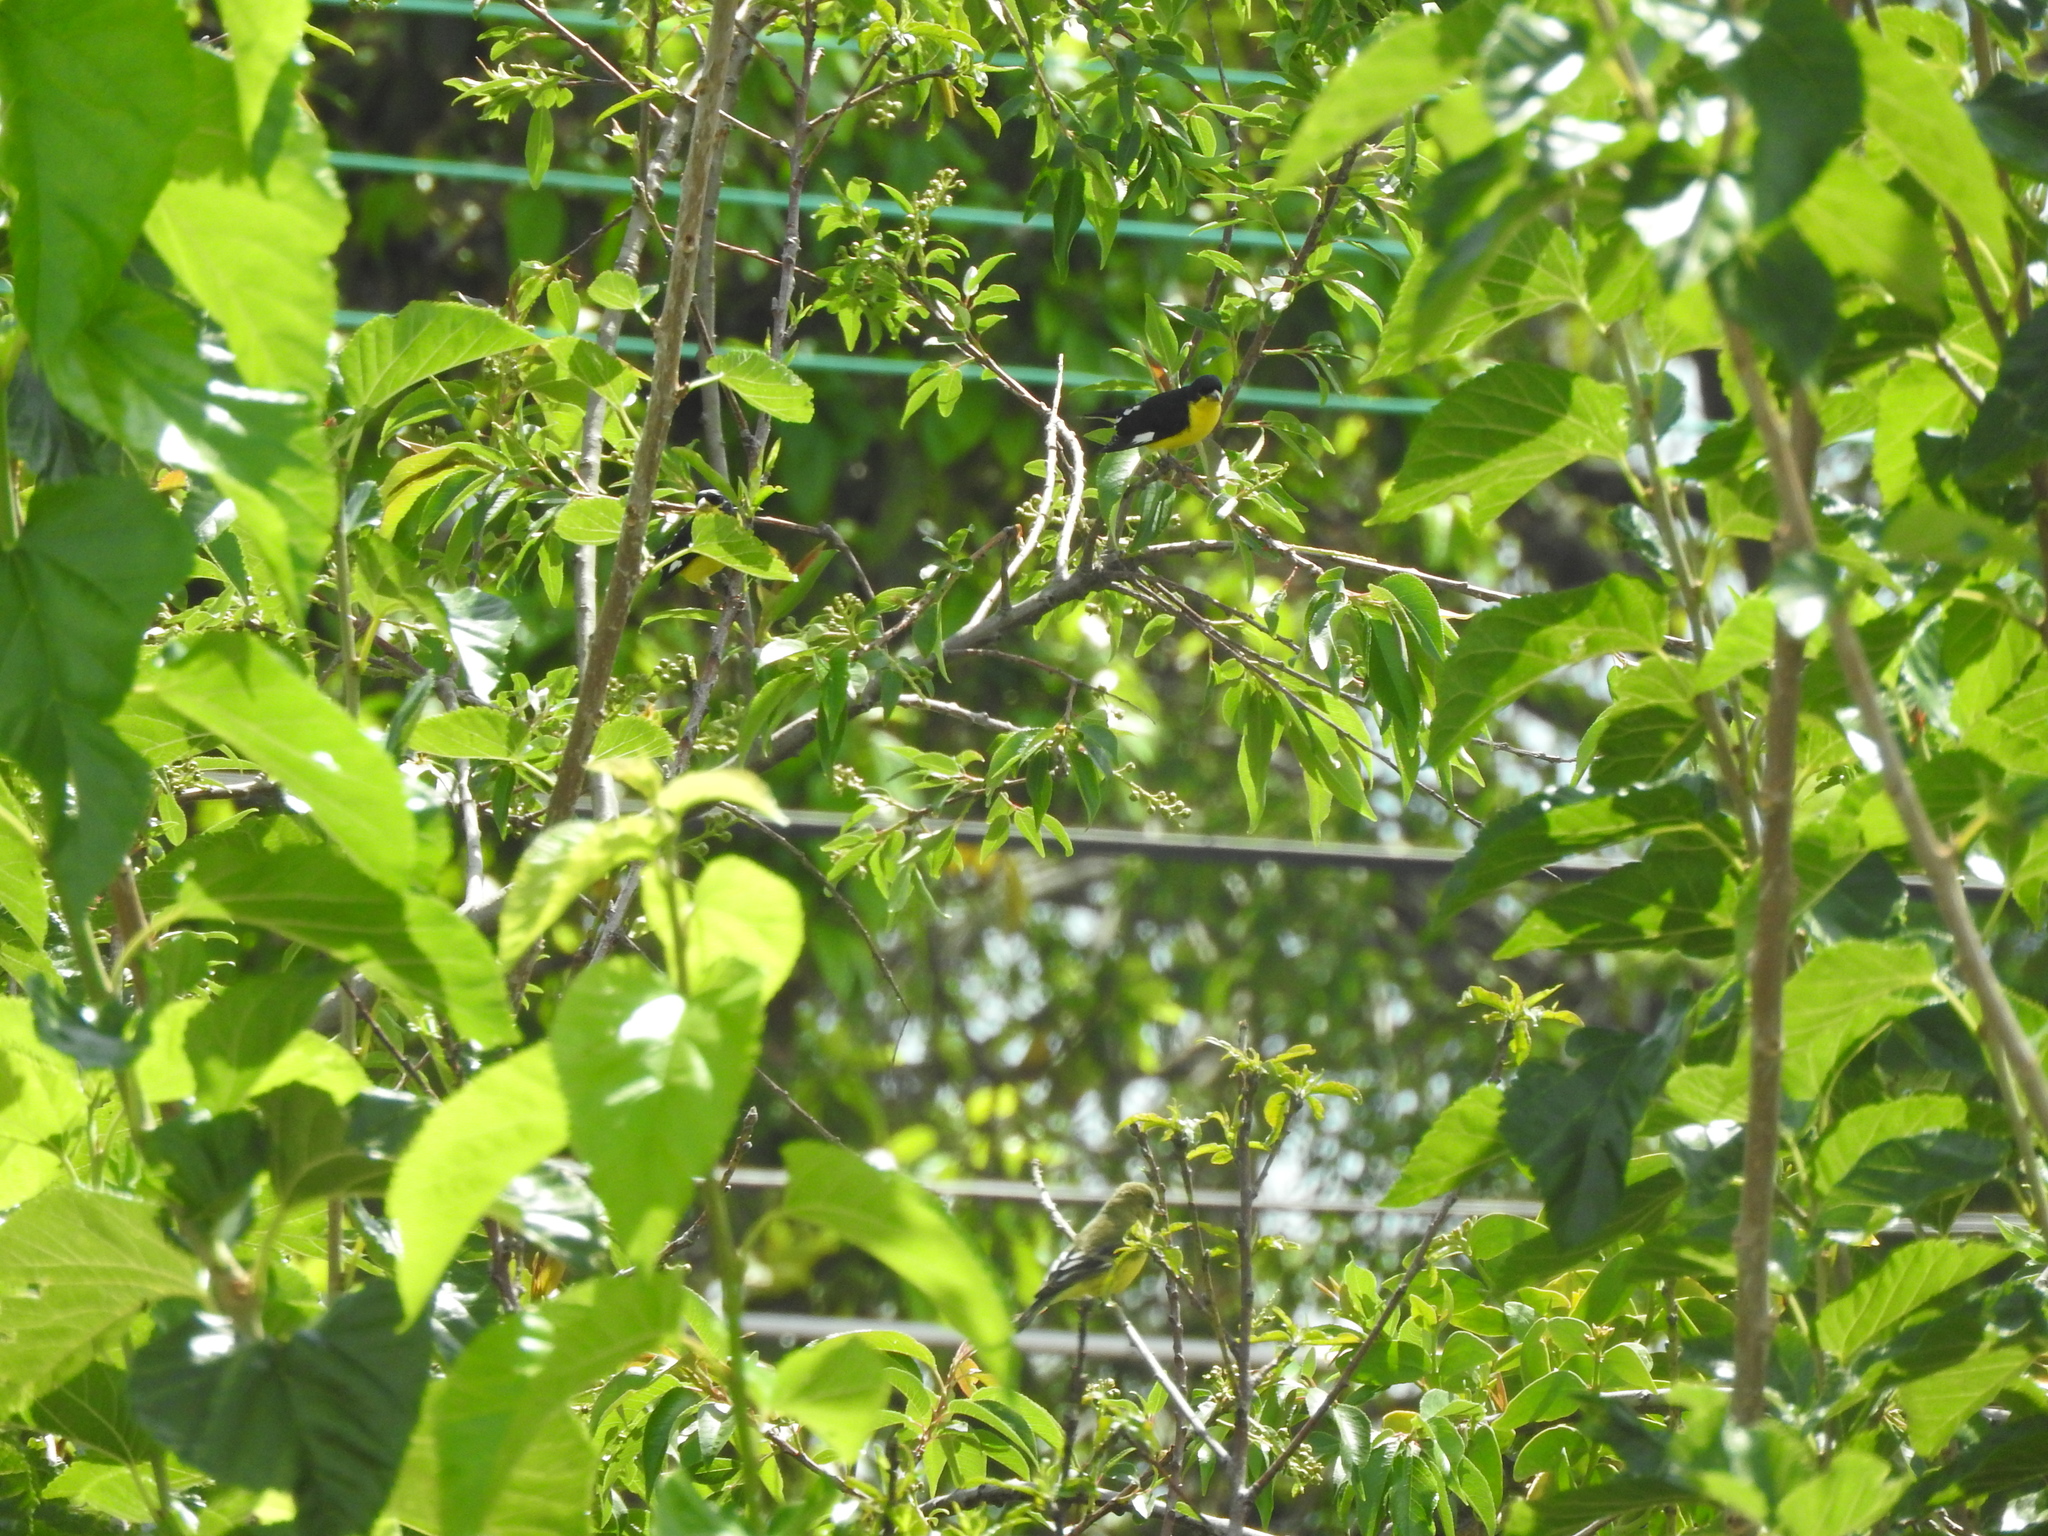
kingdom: Animalia
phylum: Chordata
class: Aves
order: Passeriformes
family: Fringillidae
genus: Spinus
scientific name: Spinus psaltria
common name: Lesser goldfinch
